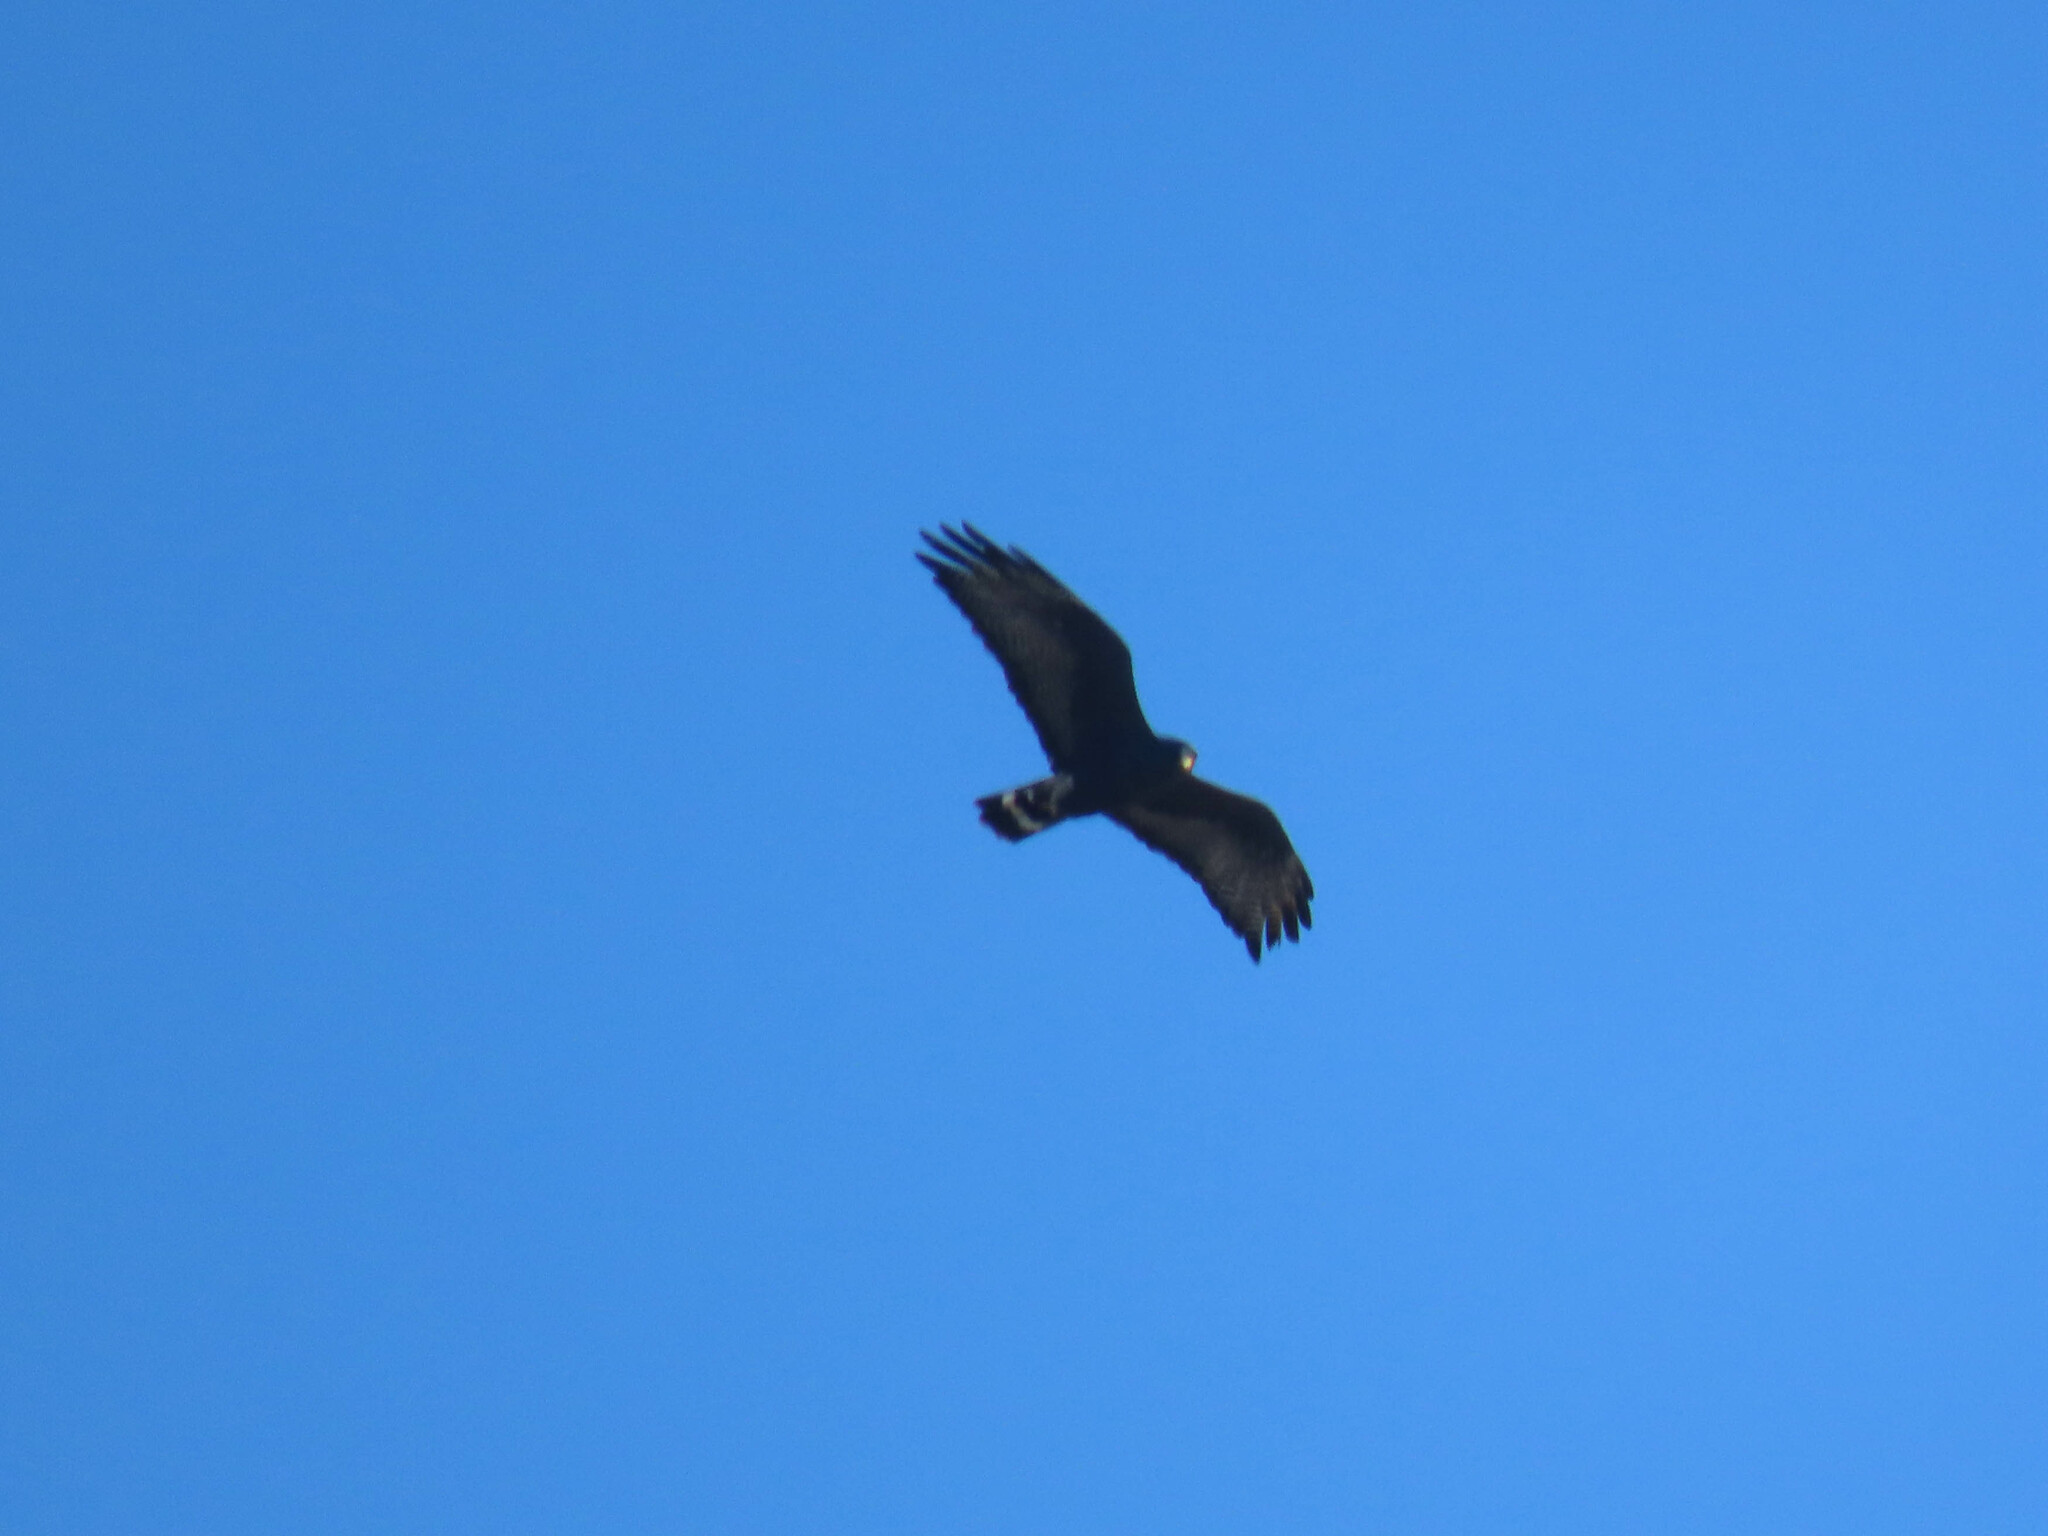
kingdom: Animalia
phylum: Chordata
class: Aves
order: Accipitriformes
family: Accipitridae
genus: Buteo
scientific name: Buteo albonotatus
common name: Zone-tailed hawk
